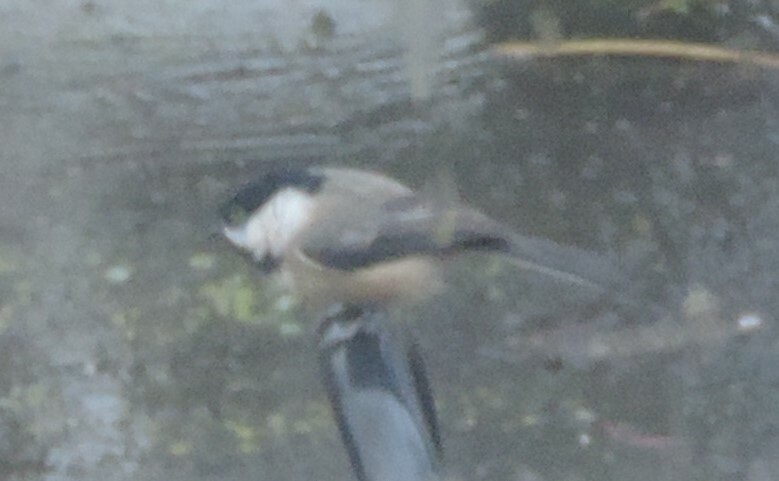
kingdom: Animalia
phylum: Chordata
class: Aves
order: Passeriformes
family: Paridae
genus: Poecile
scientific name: Poecile atricapillus
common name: Black-capped chickadee
